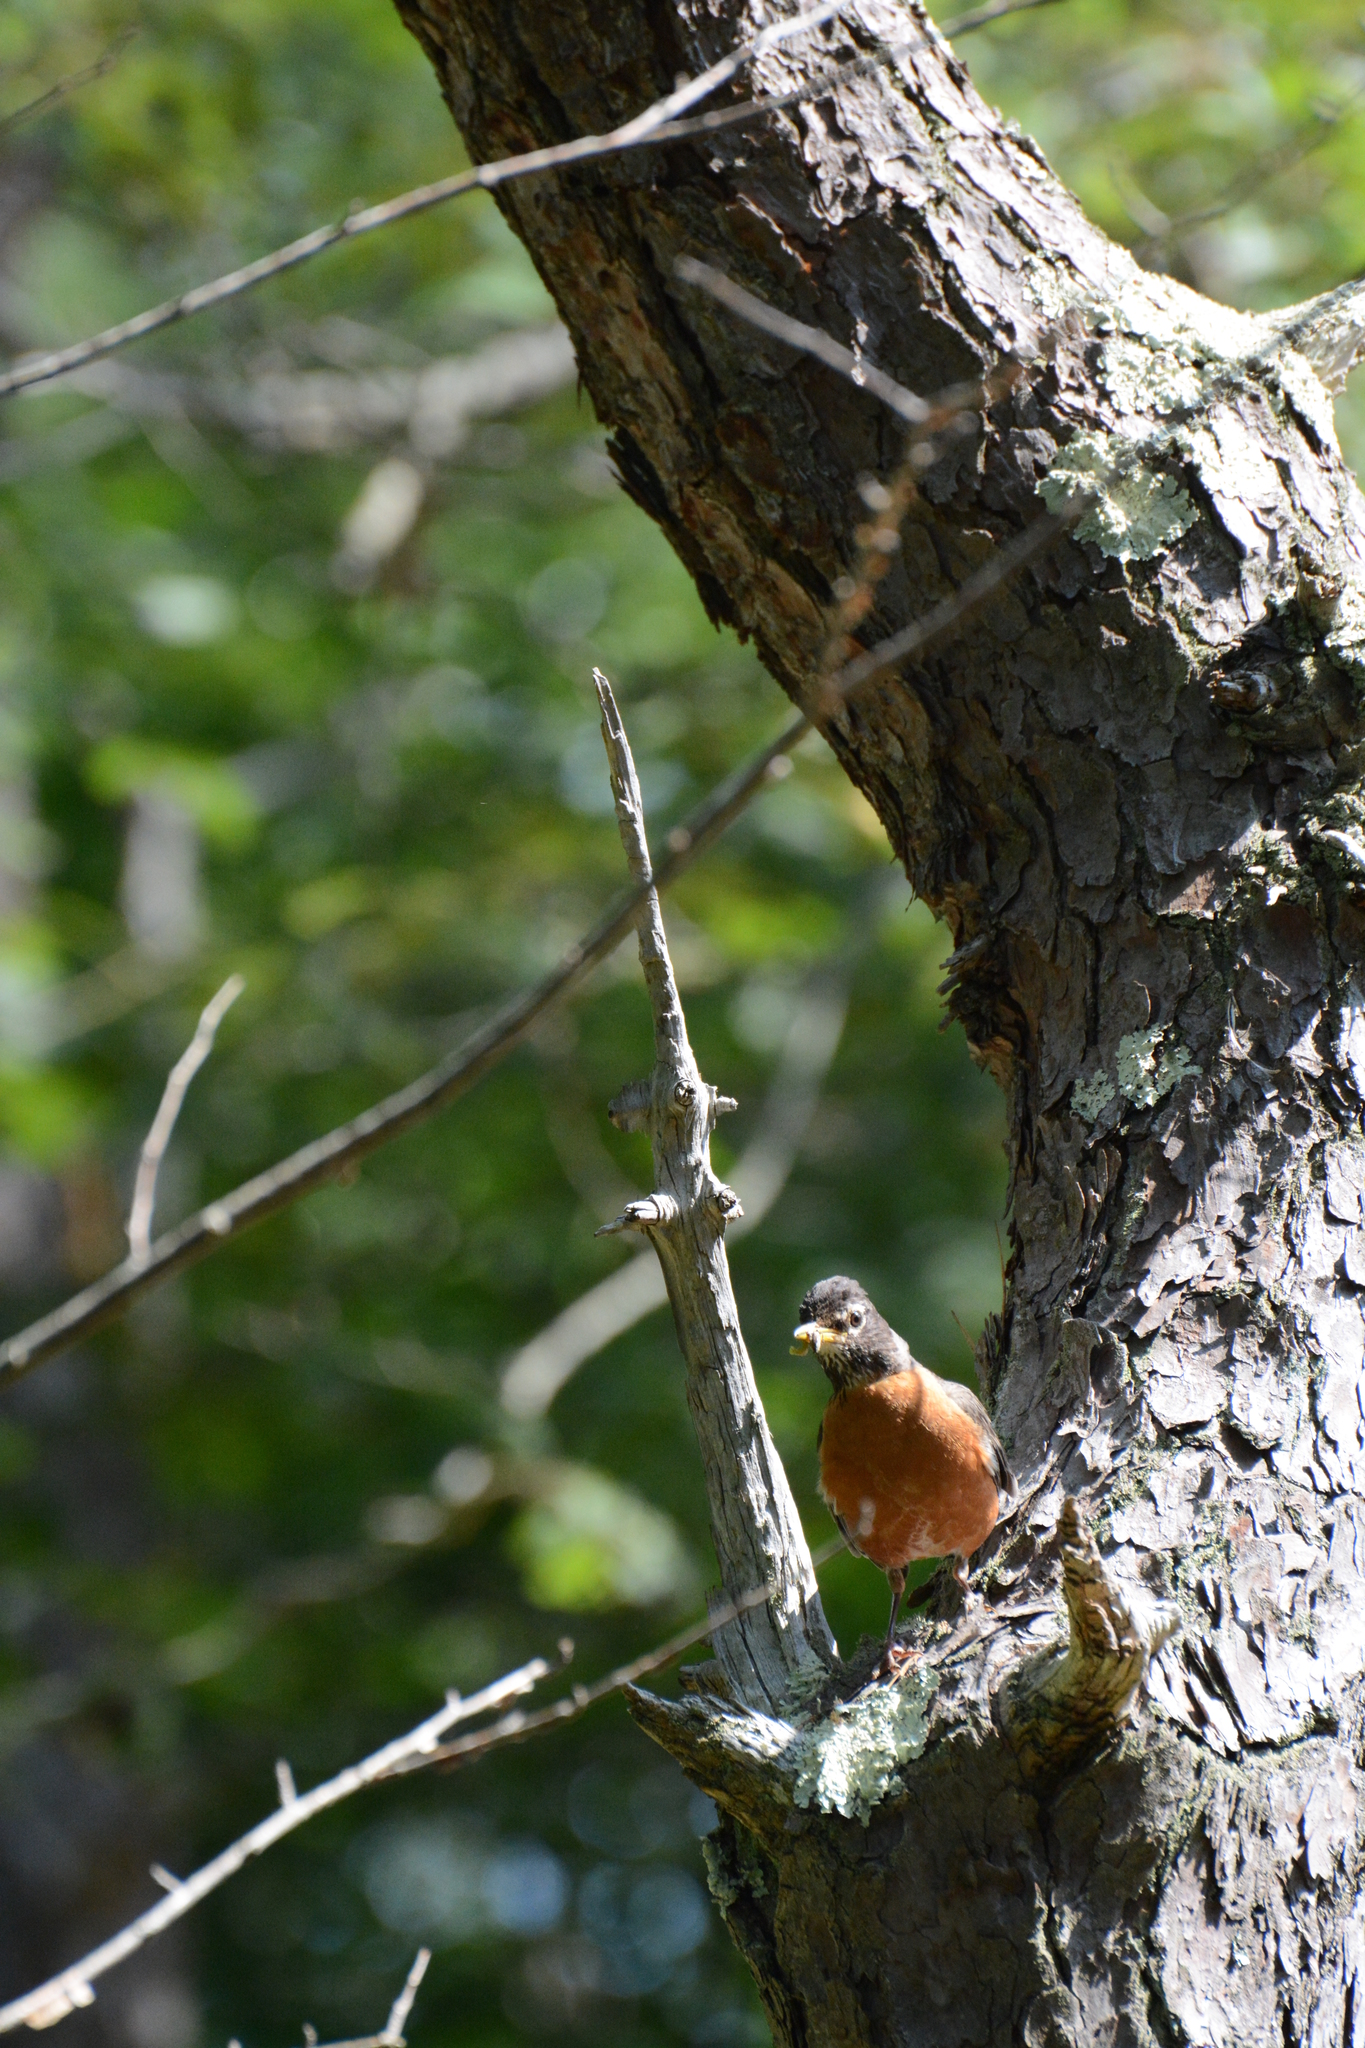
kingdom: Animalia
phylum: Chordata
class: Aves
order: Passeriformes
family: Turdidae
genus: Turdus
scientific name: Turdus migratorius
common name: American robin
